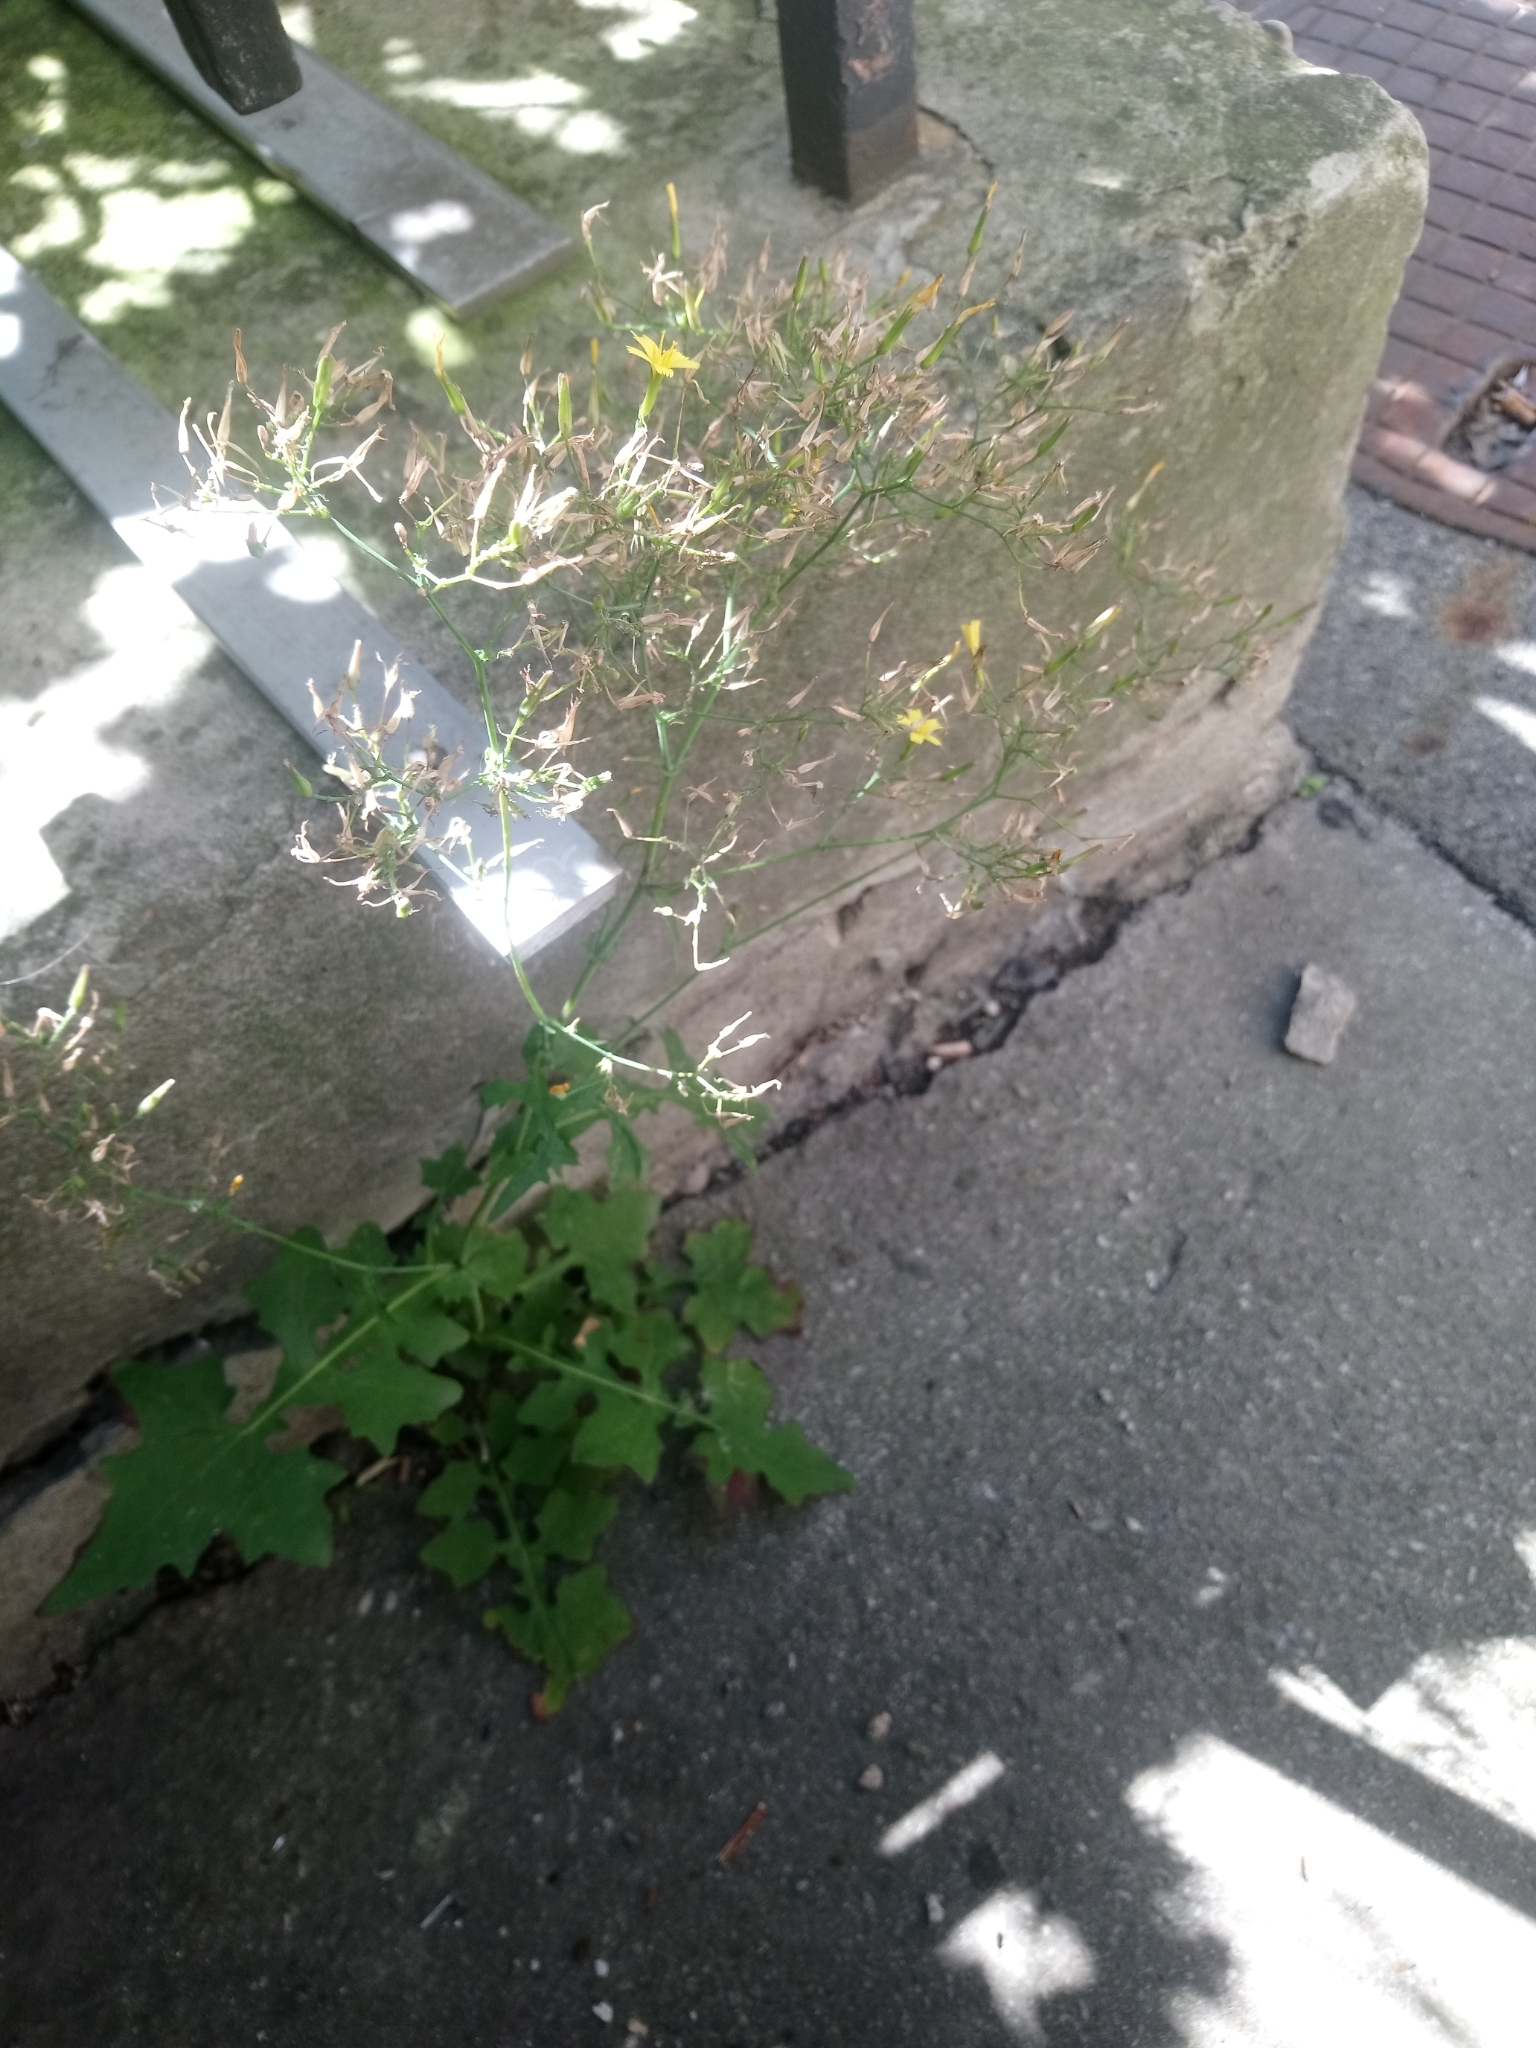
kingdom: Plantae
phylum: Tracheophyta
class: Magnoliopsida
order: Asterales
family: Asteraceae
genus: Mycelis
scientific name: Mycelis muralis
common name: Wall lettuce
